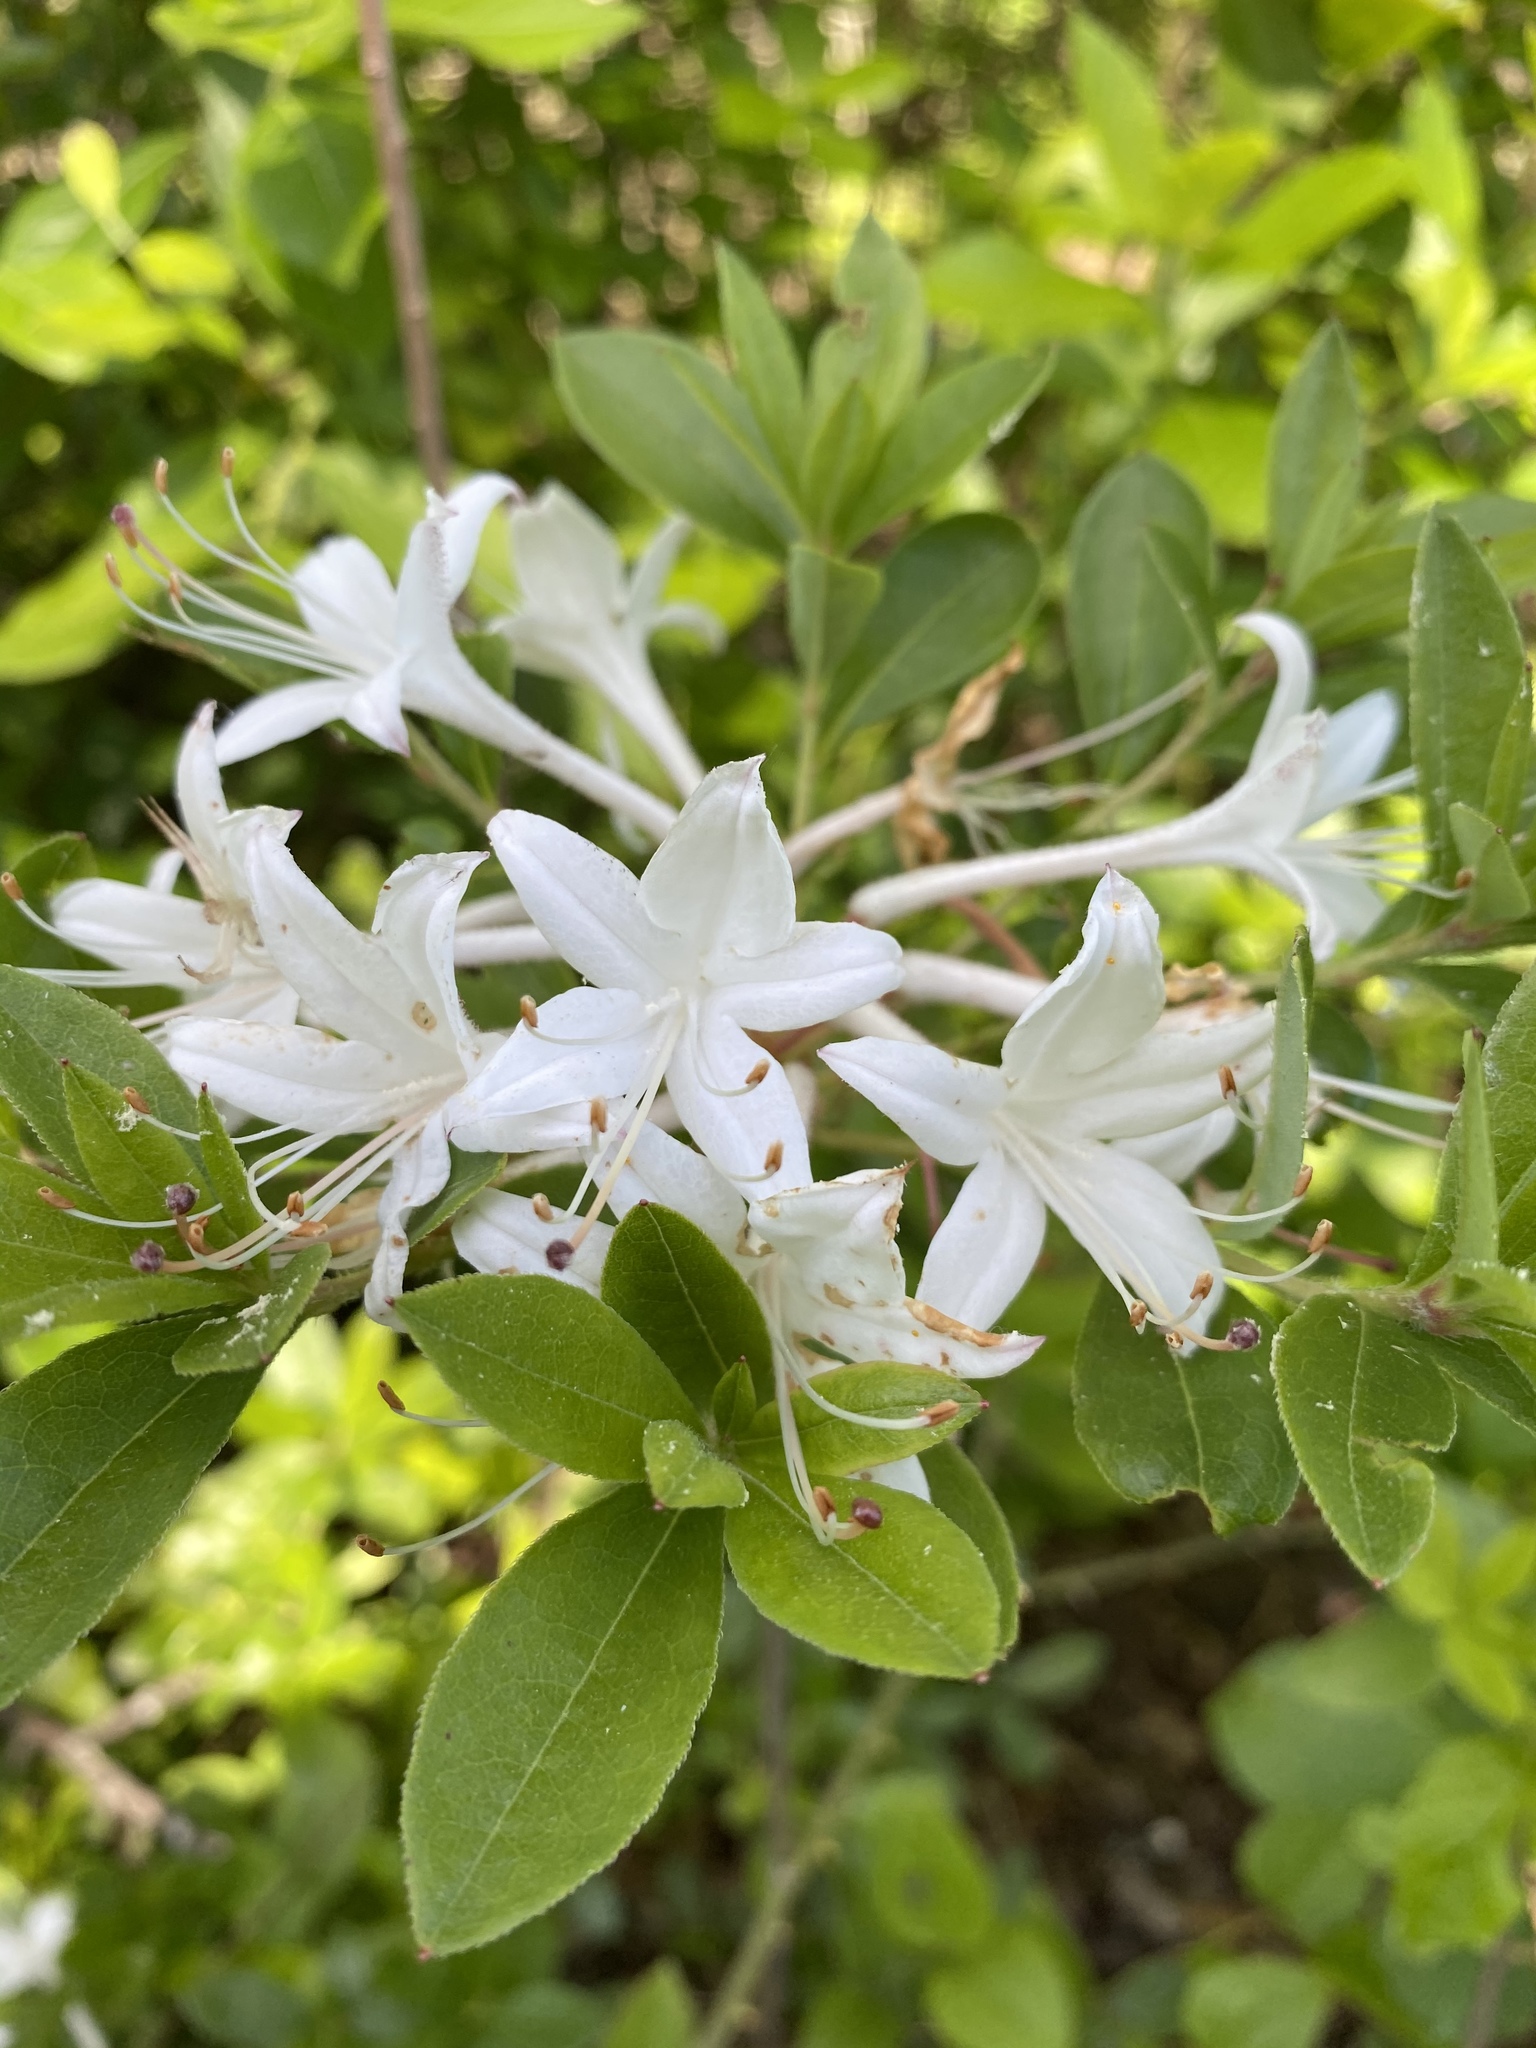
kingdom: Plantae
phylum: Tracheophyta
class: Magnoliopsida
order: Ericales
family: Ericaceae
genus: Rhododendron
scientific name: Rhododendron viscosum
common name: Clammy azalea
